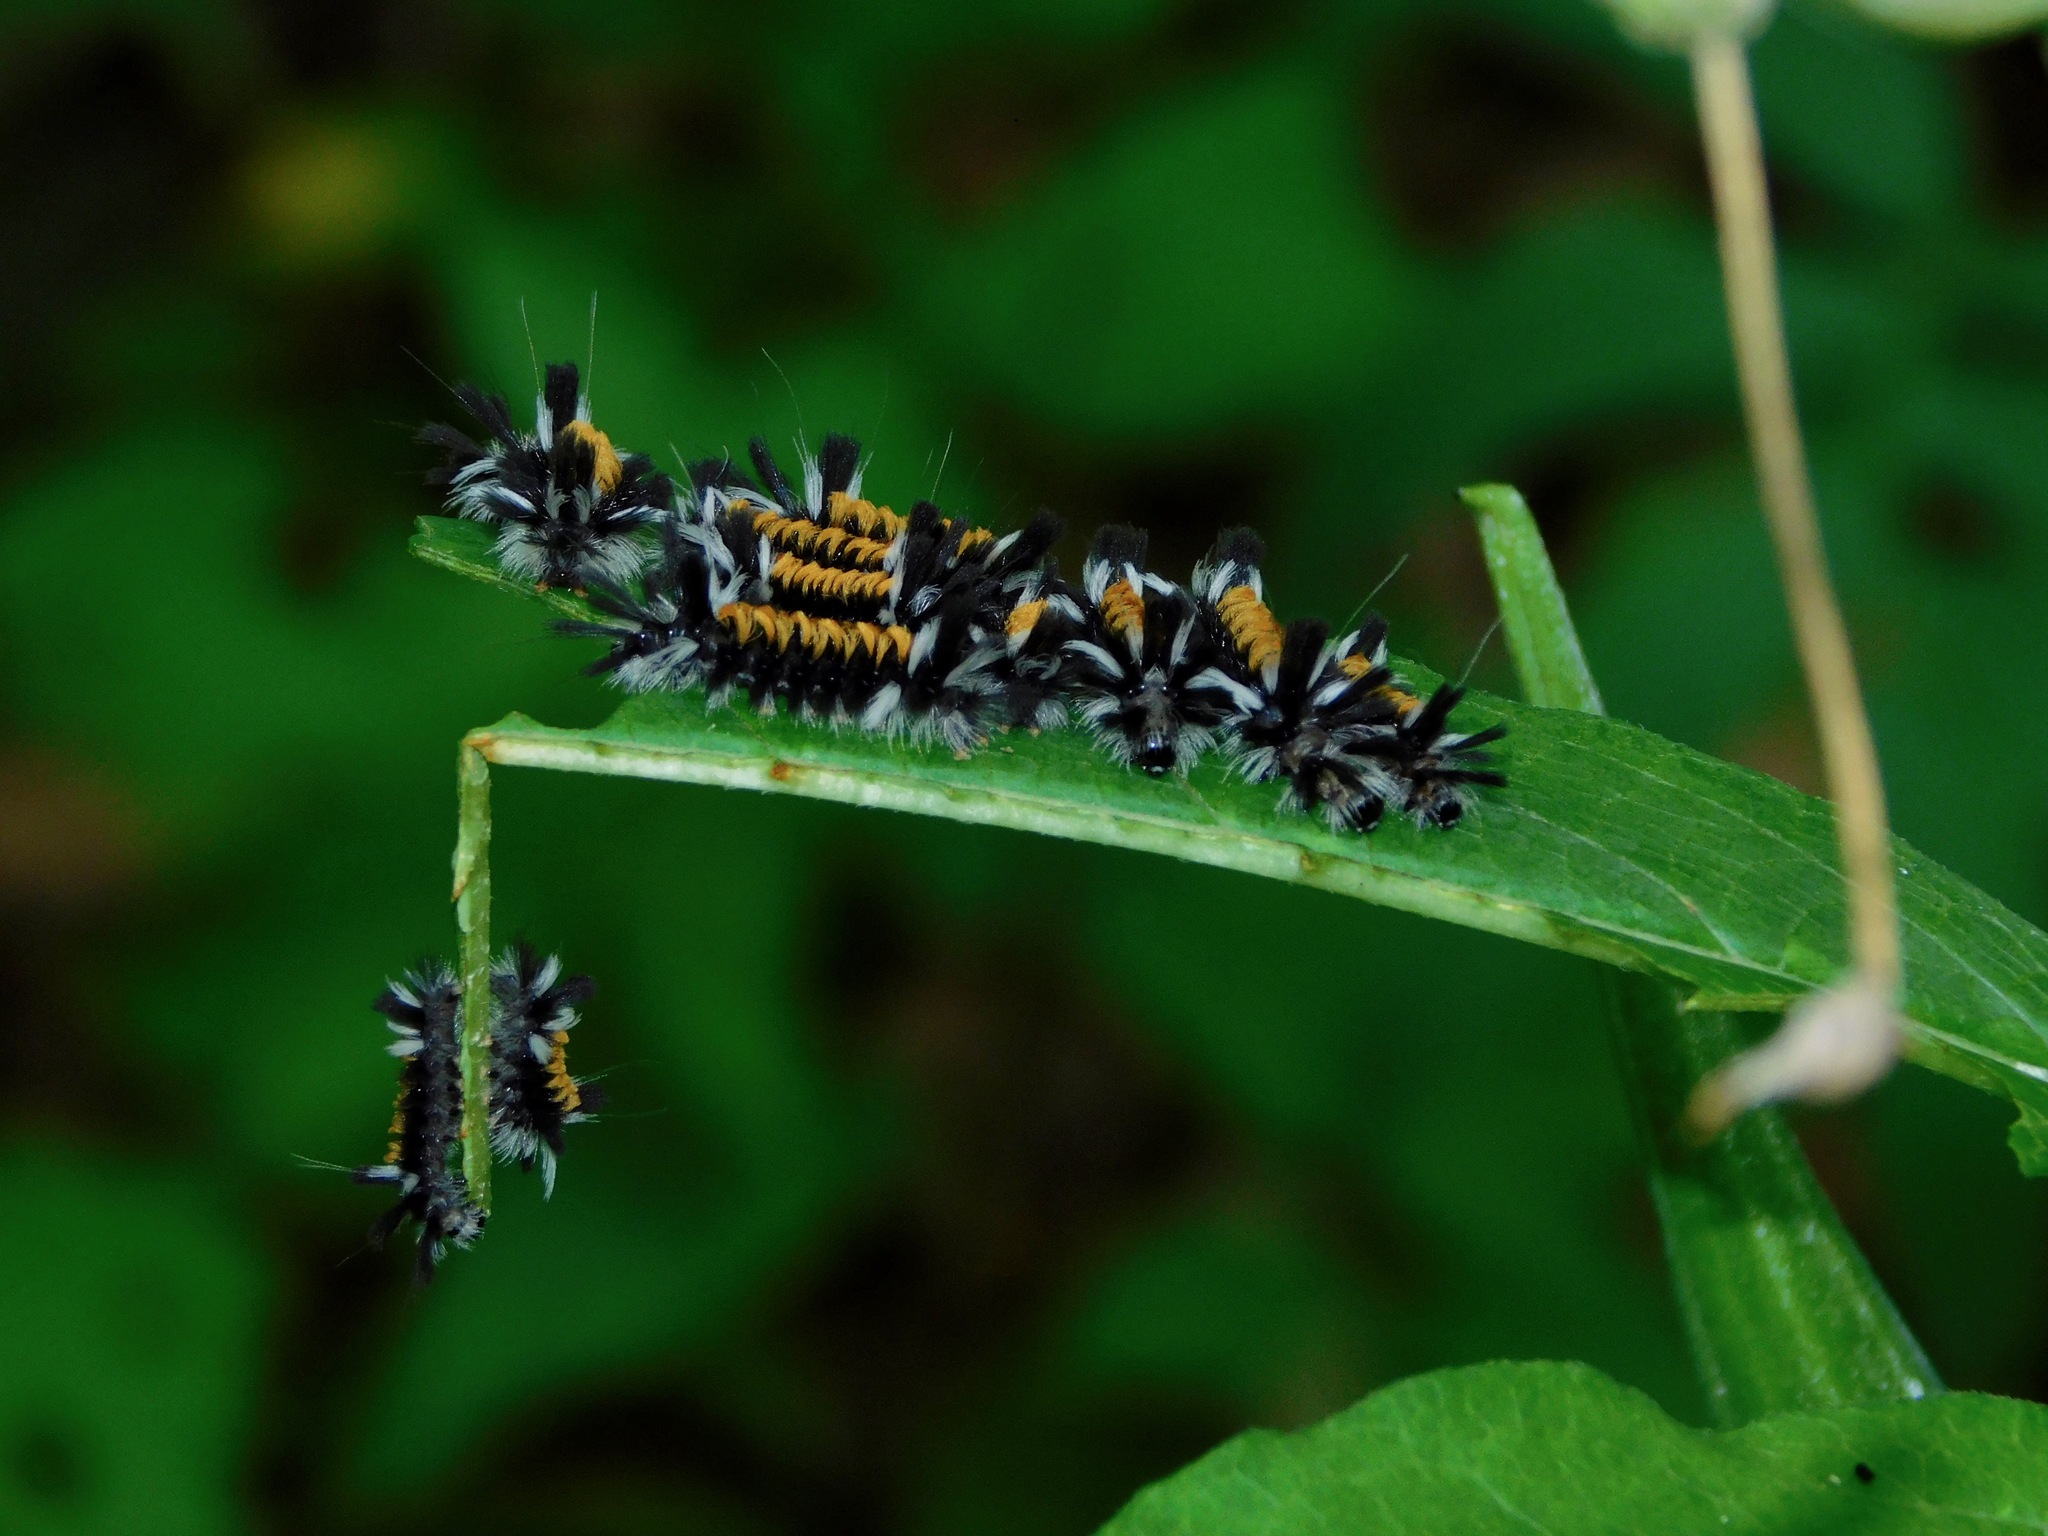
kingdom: Plantae
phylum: Tracheophyta
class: Magnoliopsida
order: Gentianales
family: Apocynaceae
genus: Asclepias
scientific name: Asclepias exaltata
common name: Poke milkweed
